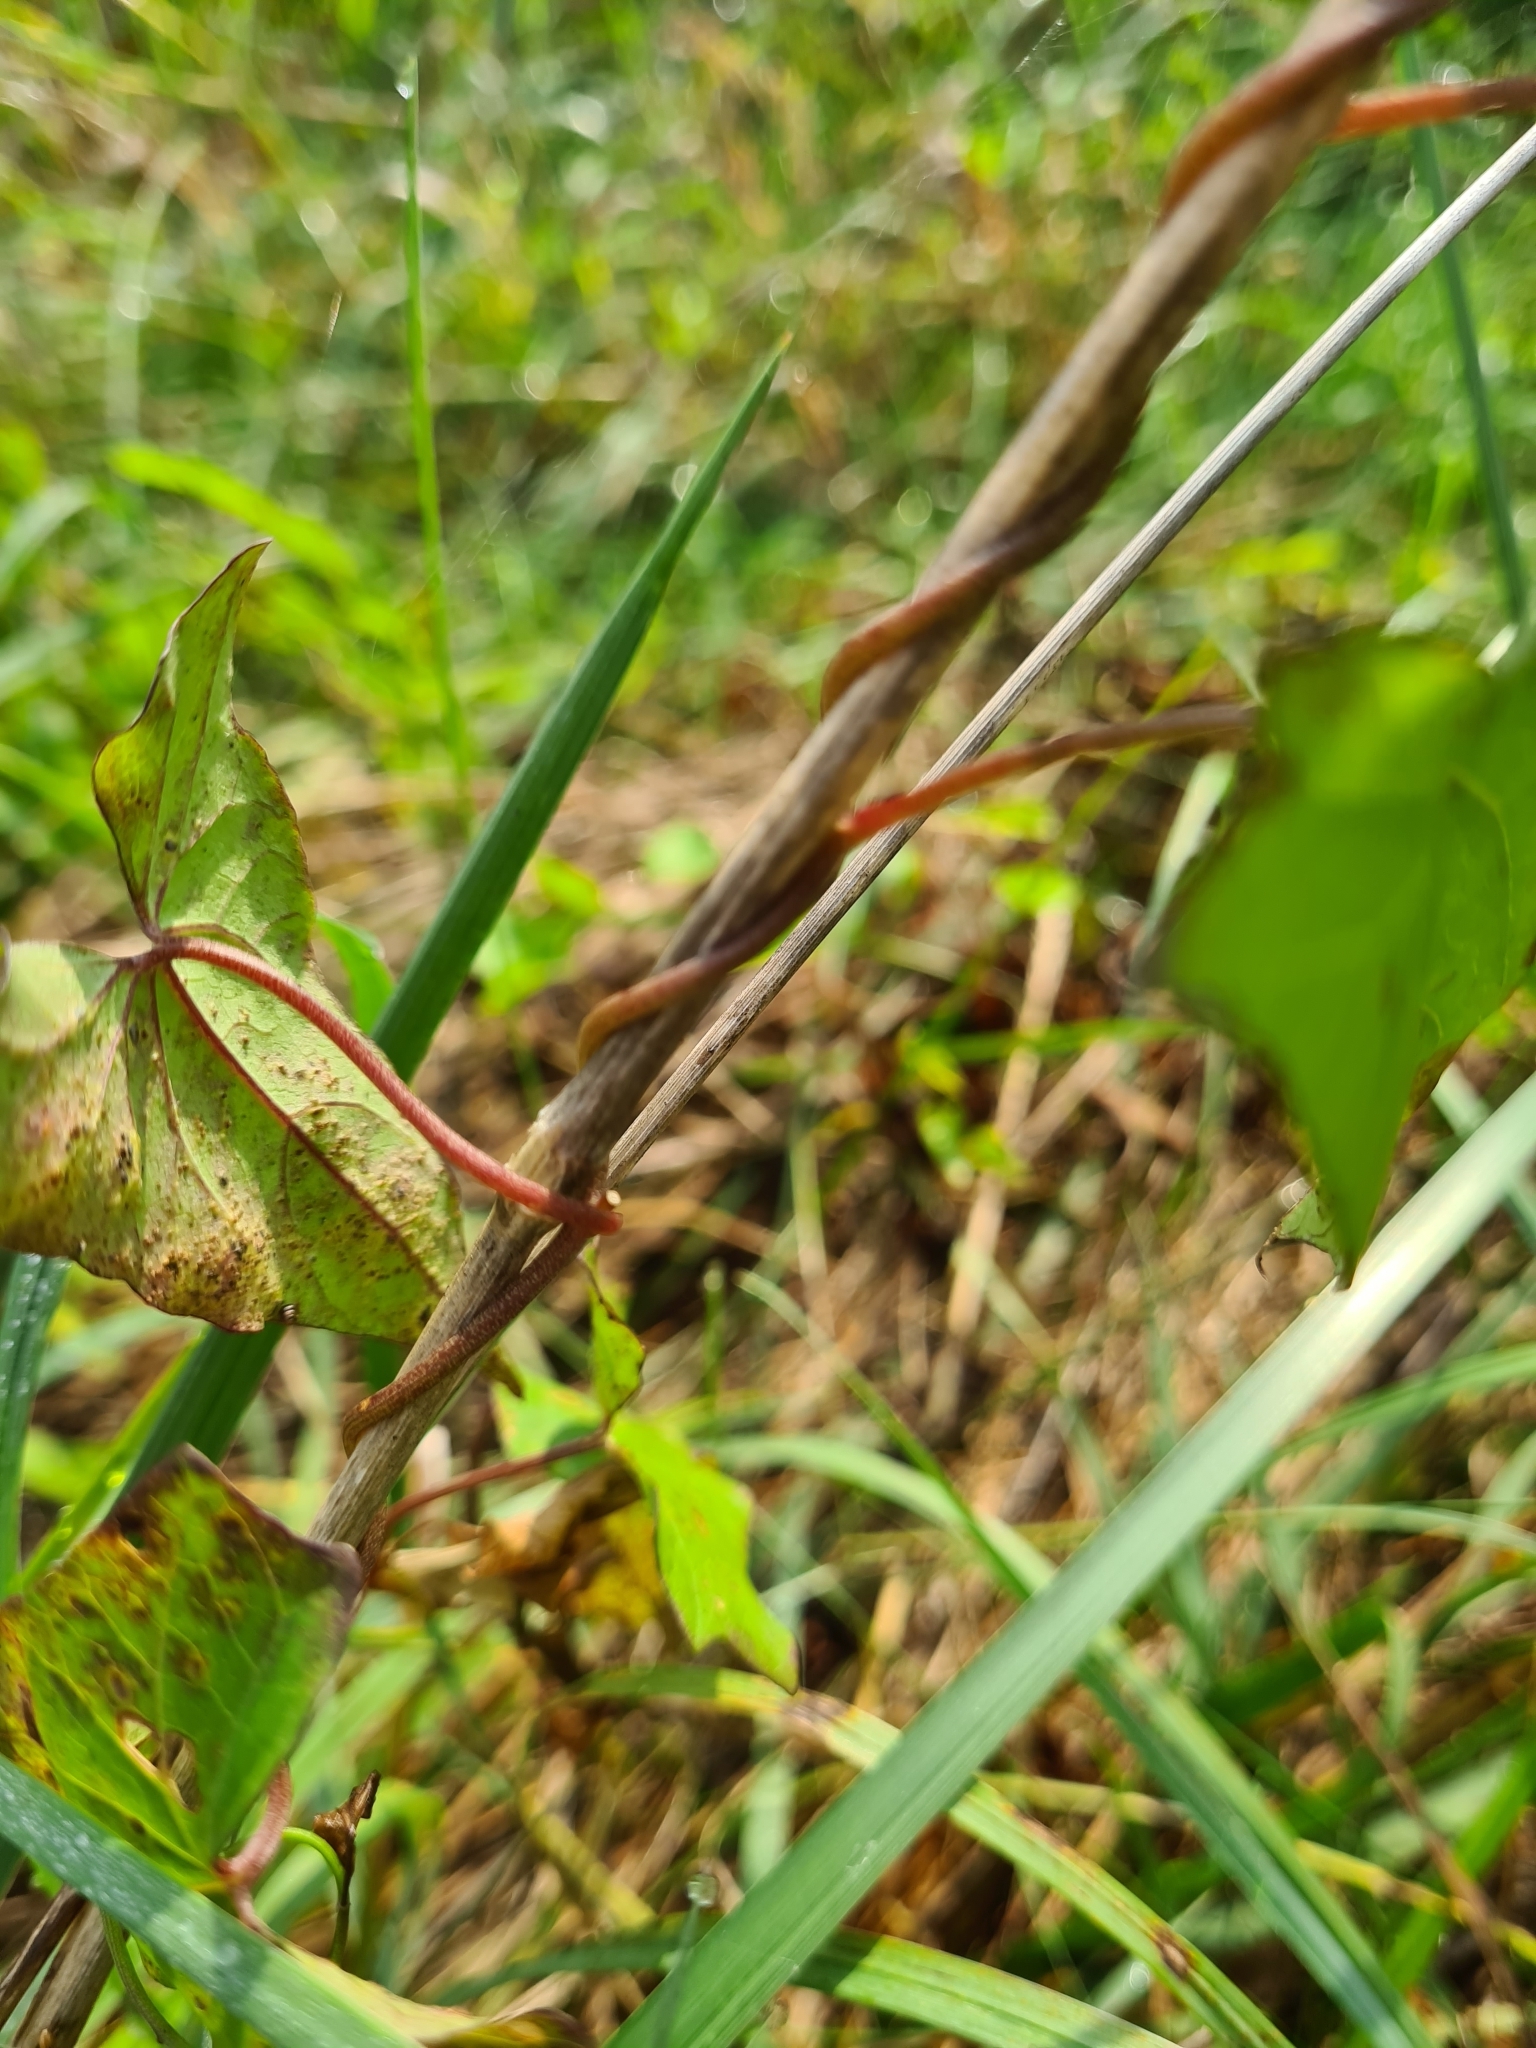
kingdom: Plantae
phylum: Tracheophyta
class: Magnoliopsida
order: Solanales
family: Convolvulaceae
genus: Calystegia
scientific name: Calystegia sepium
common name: Hedge bindweed
